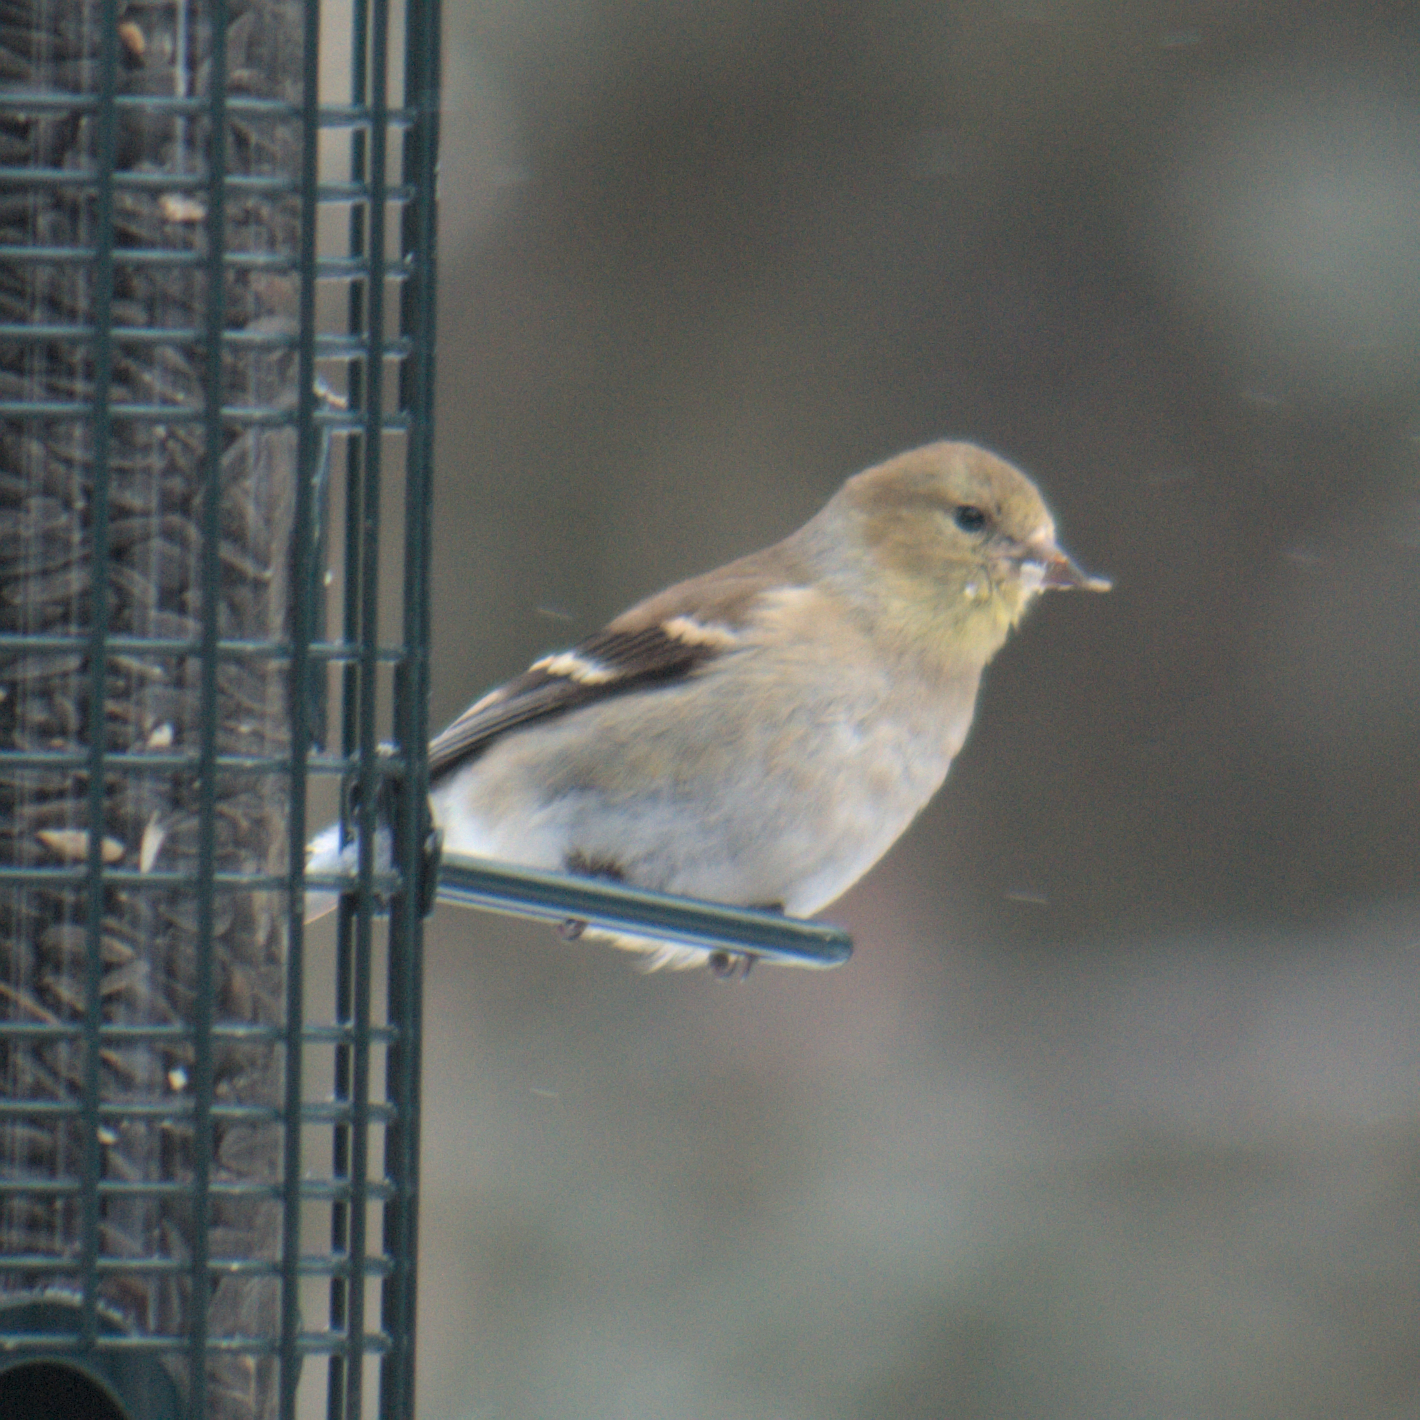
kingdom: Animalia
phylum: Chordata
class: Aves
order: Passeriformes
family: Fringillidae
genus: Spinus
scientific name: Spinus tristis
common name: American goldfinch
